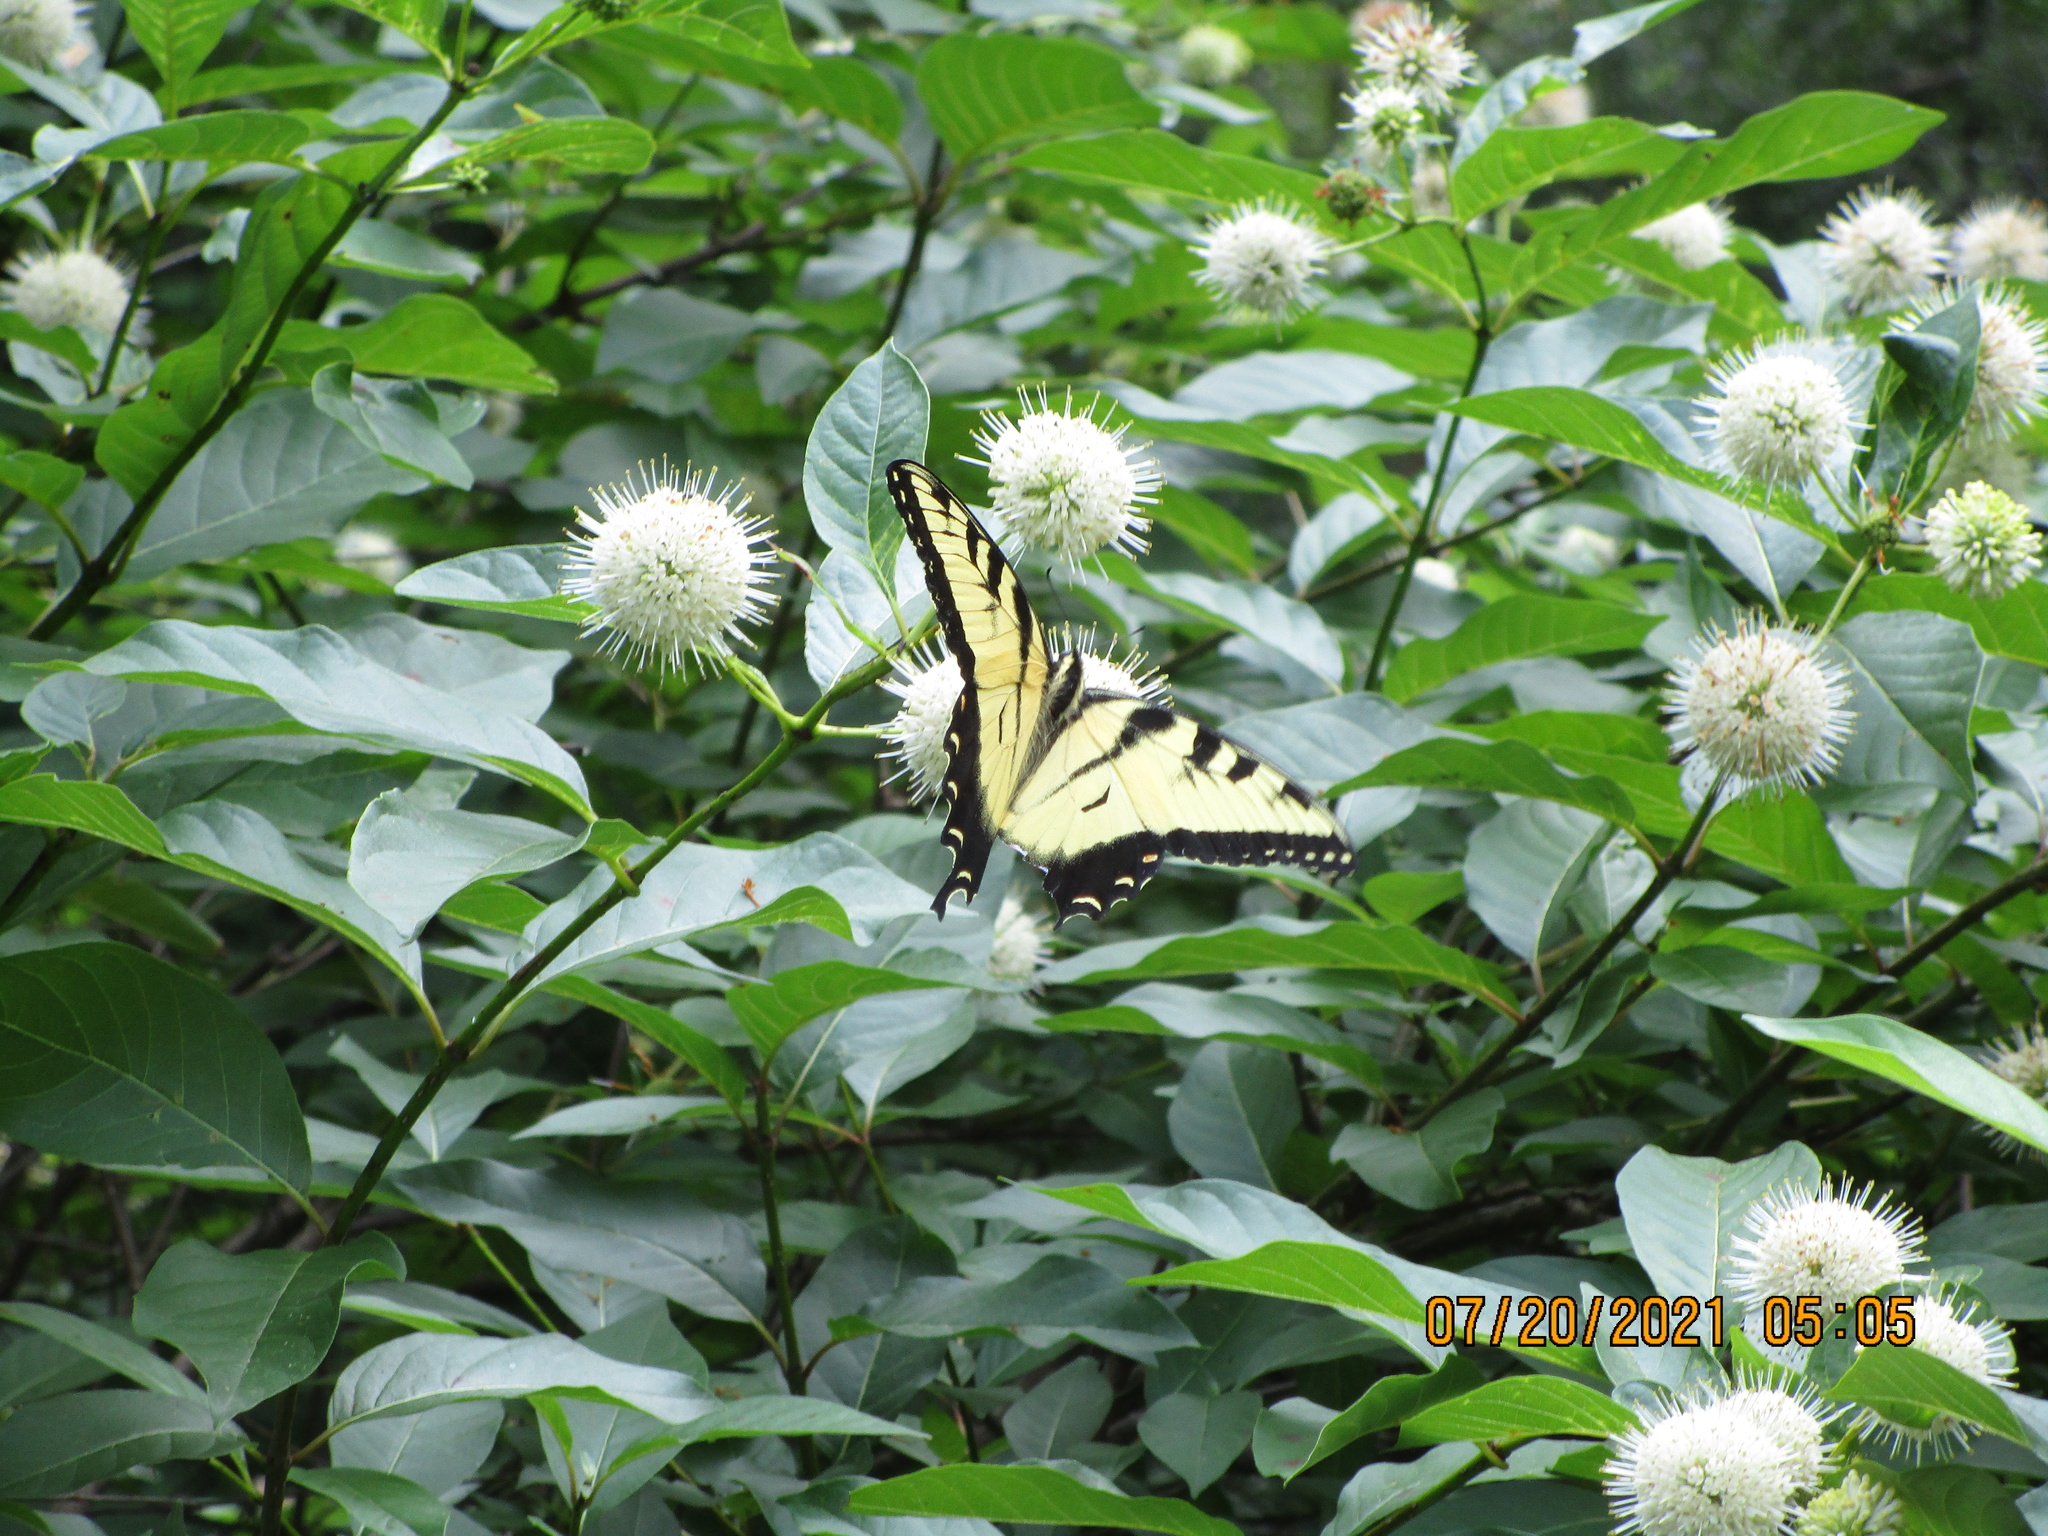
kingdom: Animalia
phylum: Arthropoda
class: Insecta
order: Lepidoptera
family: Papilionidae
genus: Papilio
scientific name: Papilio glaucus
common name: Tiger swallowtail
